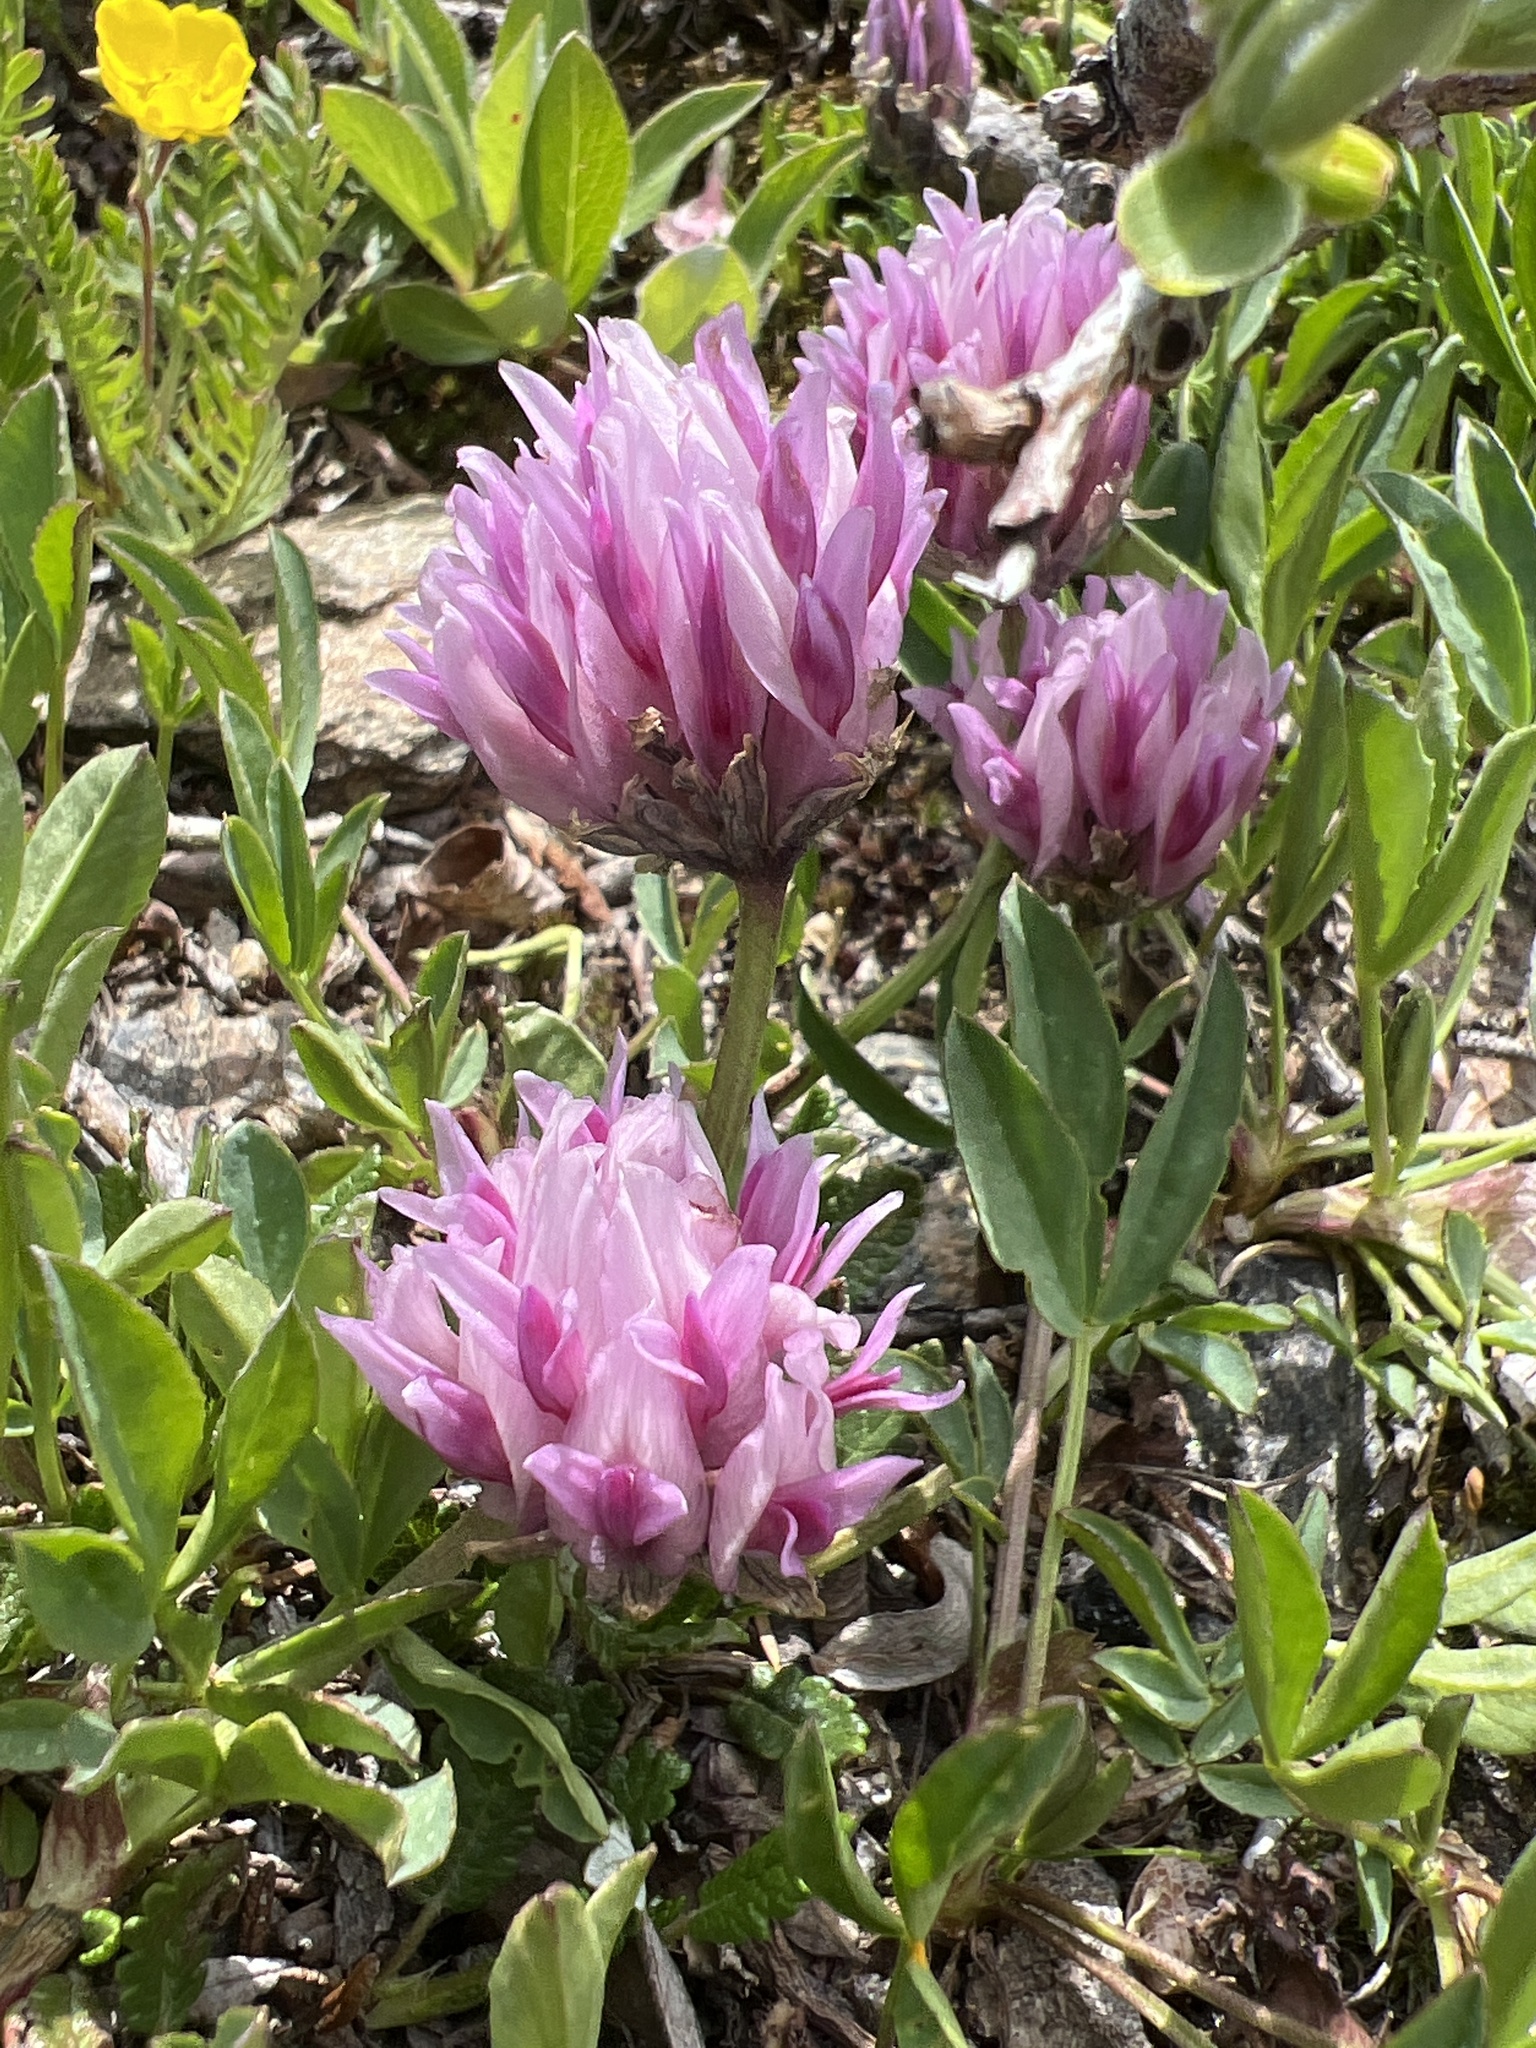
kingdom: Plantae
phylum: Tracheophyta
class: Magnoliopsida
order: Fabales
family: Fabaceae
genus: Trifolium
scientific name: Trifolium parryi
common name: Parry's clover
